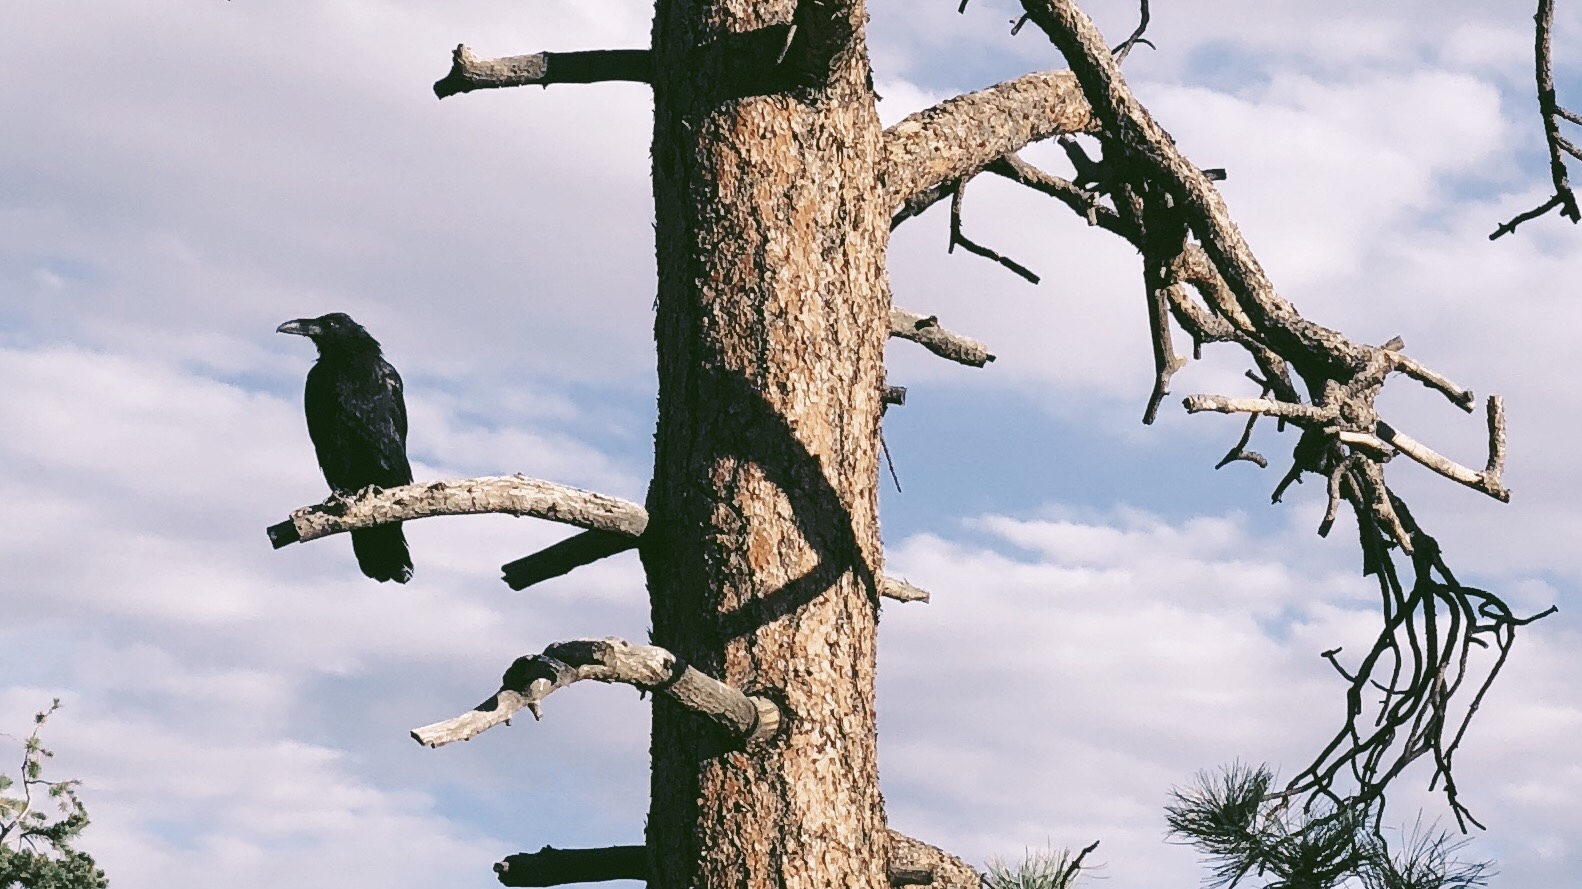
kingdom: Animalia
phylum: Chordata
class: Aves
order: Passeriformes
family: Corvidae
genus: Corvus
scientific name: Corvus corax
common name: Common raven
